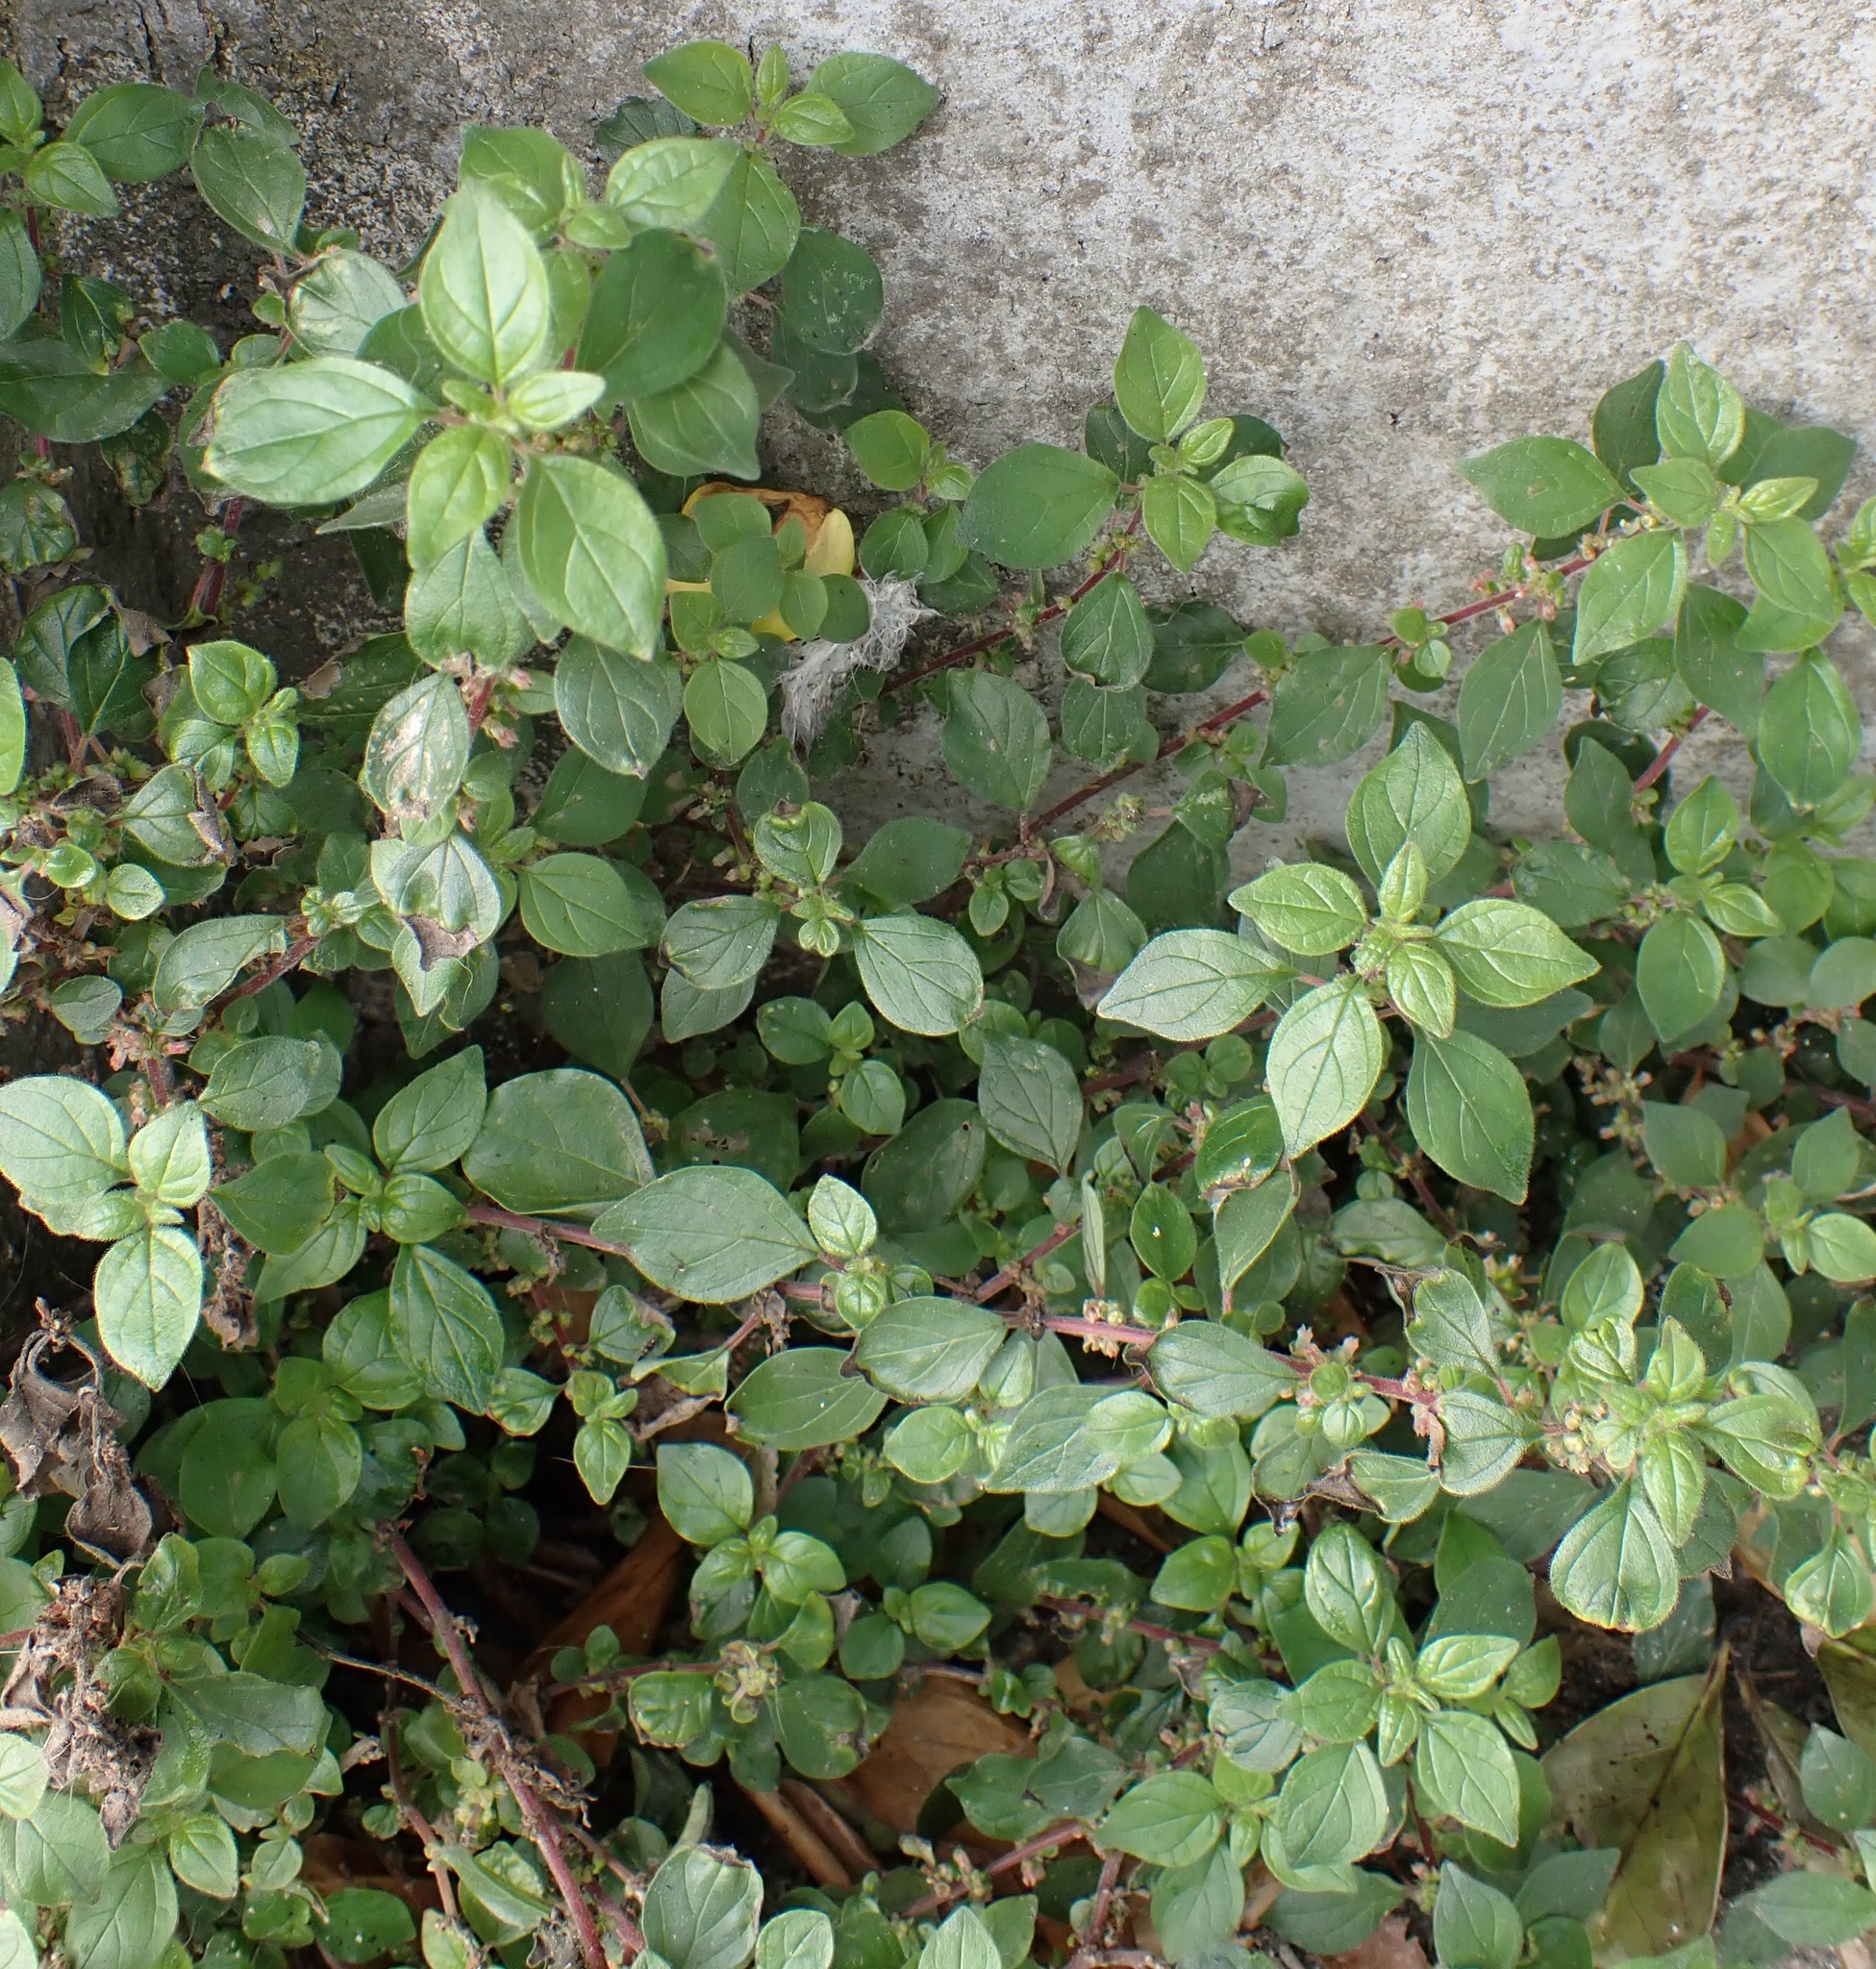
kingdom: Plantae
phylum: Tracheophyta
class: Magnoliopsida
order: Rosales
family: Urticaceae
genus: Parietaria
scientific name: Parietaria judaica
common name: Pellitory-of-the-wall
